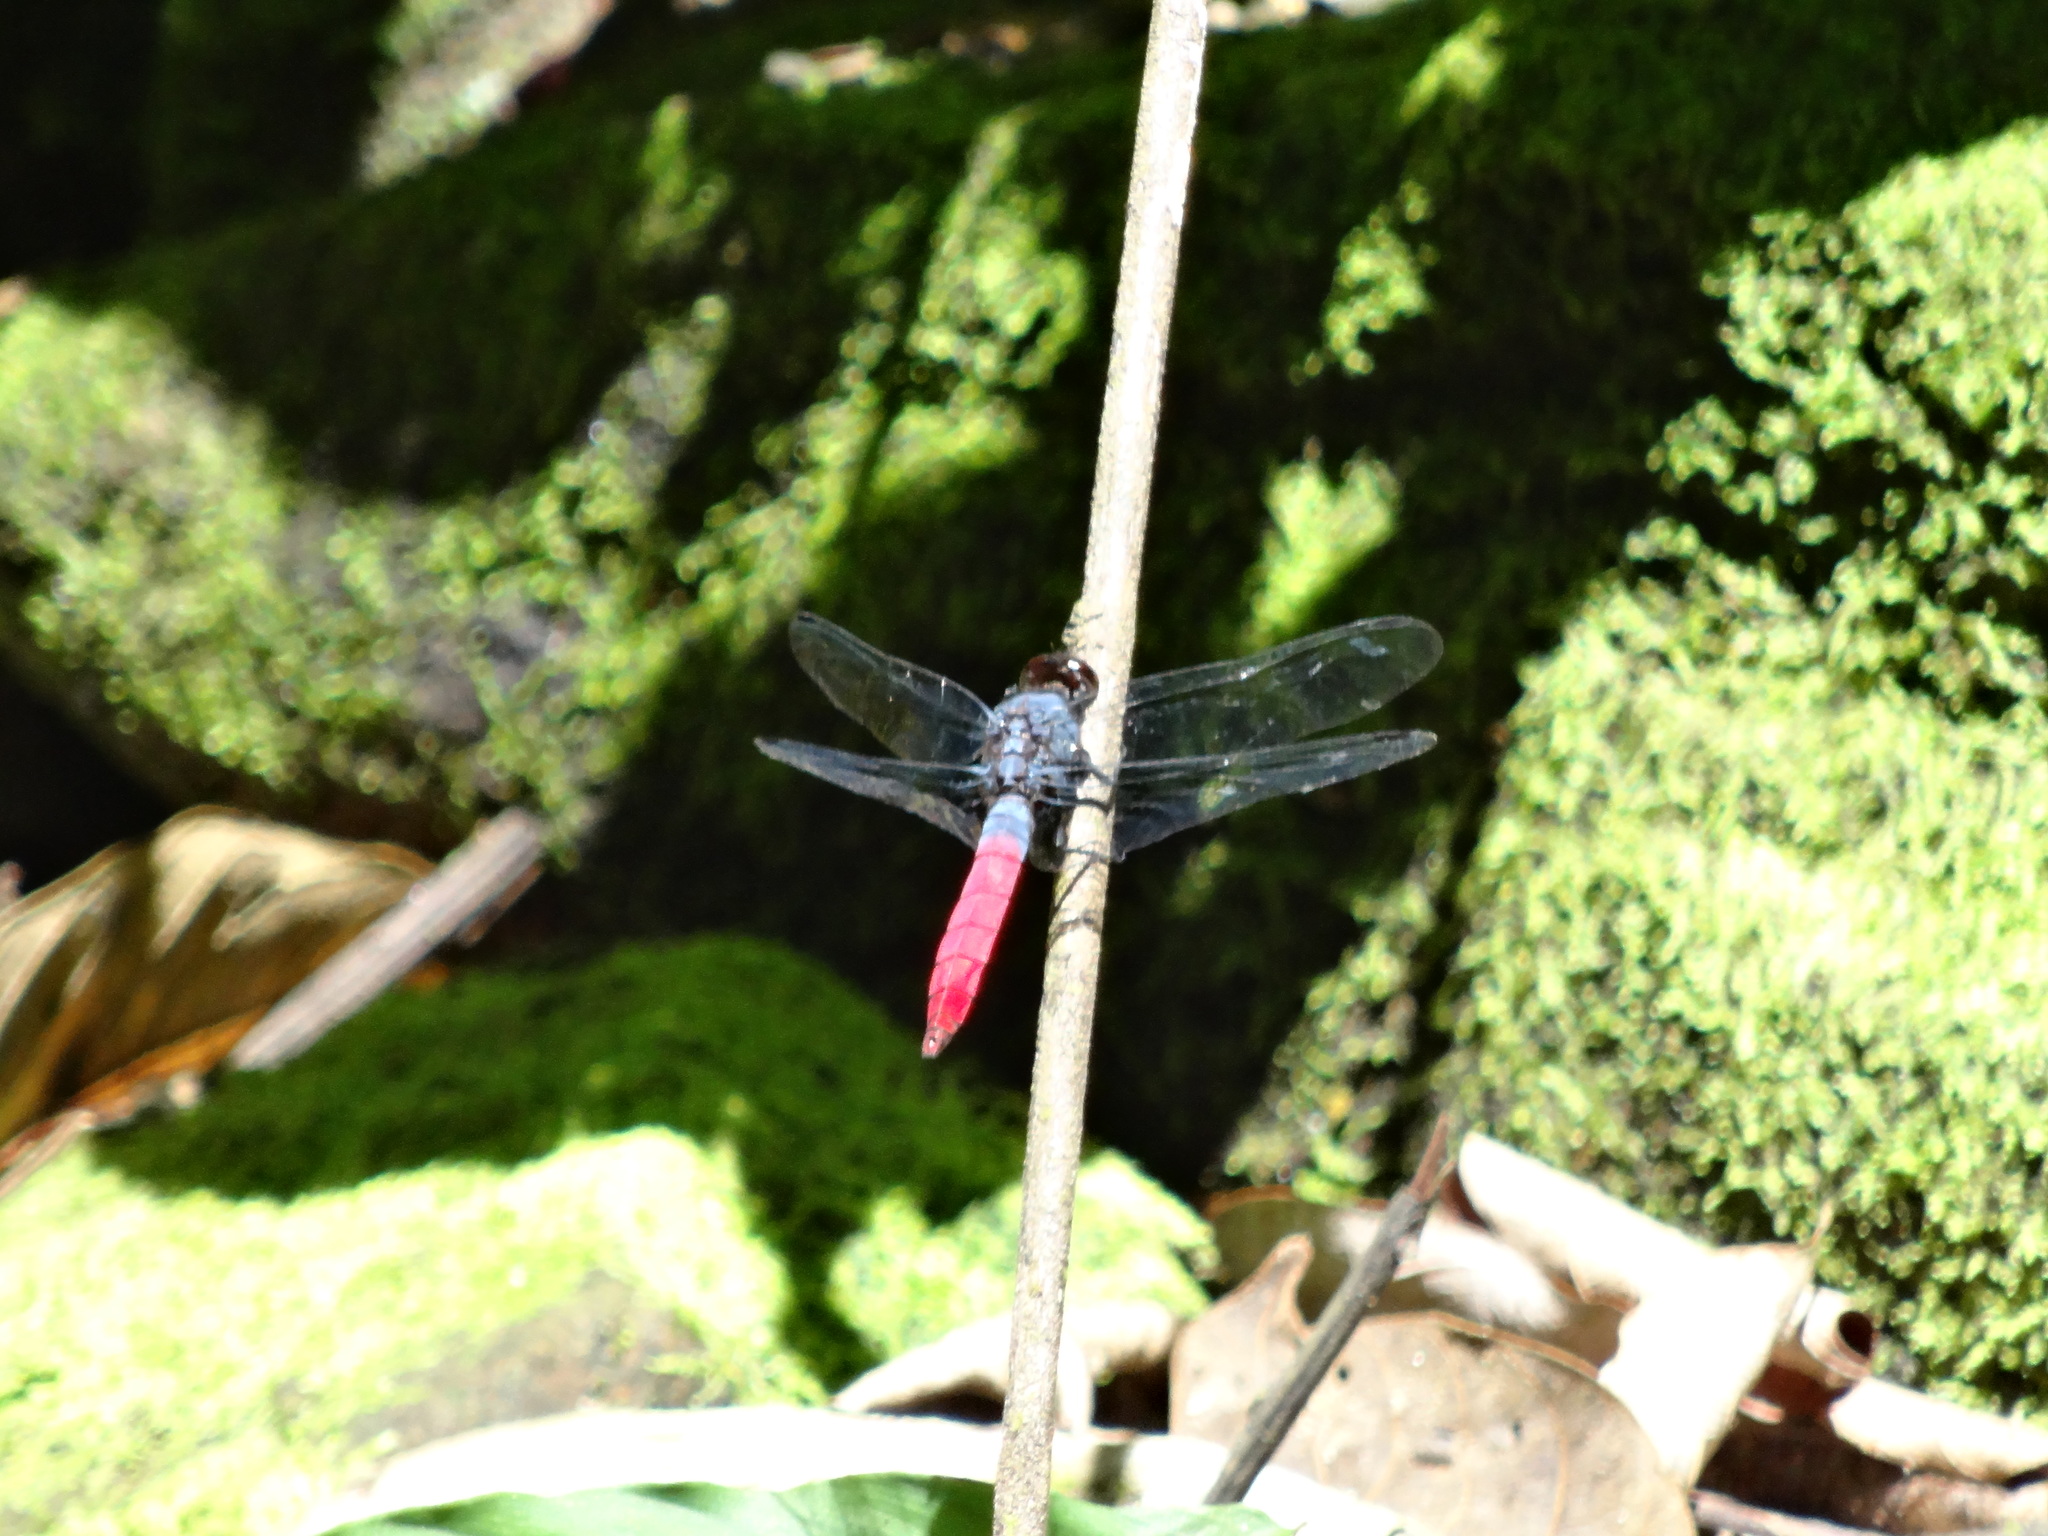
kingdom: Animalia
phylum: Arthropoda
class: Insecta
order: Odonata
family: Libellulidae
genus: Orthetrum
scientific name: Orthetrum schneideri
